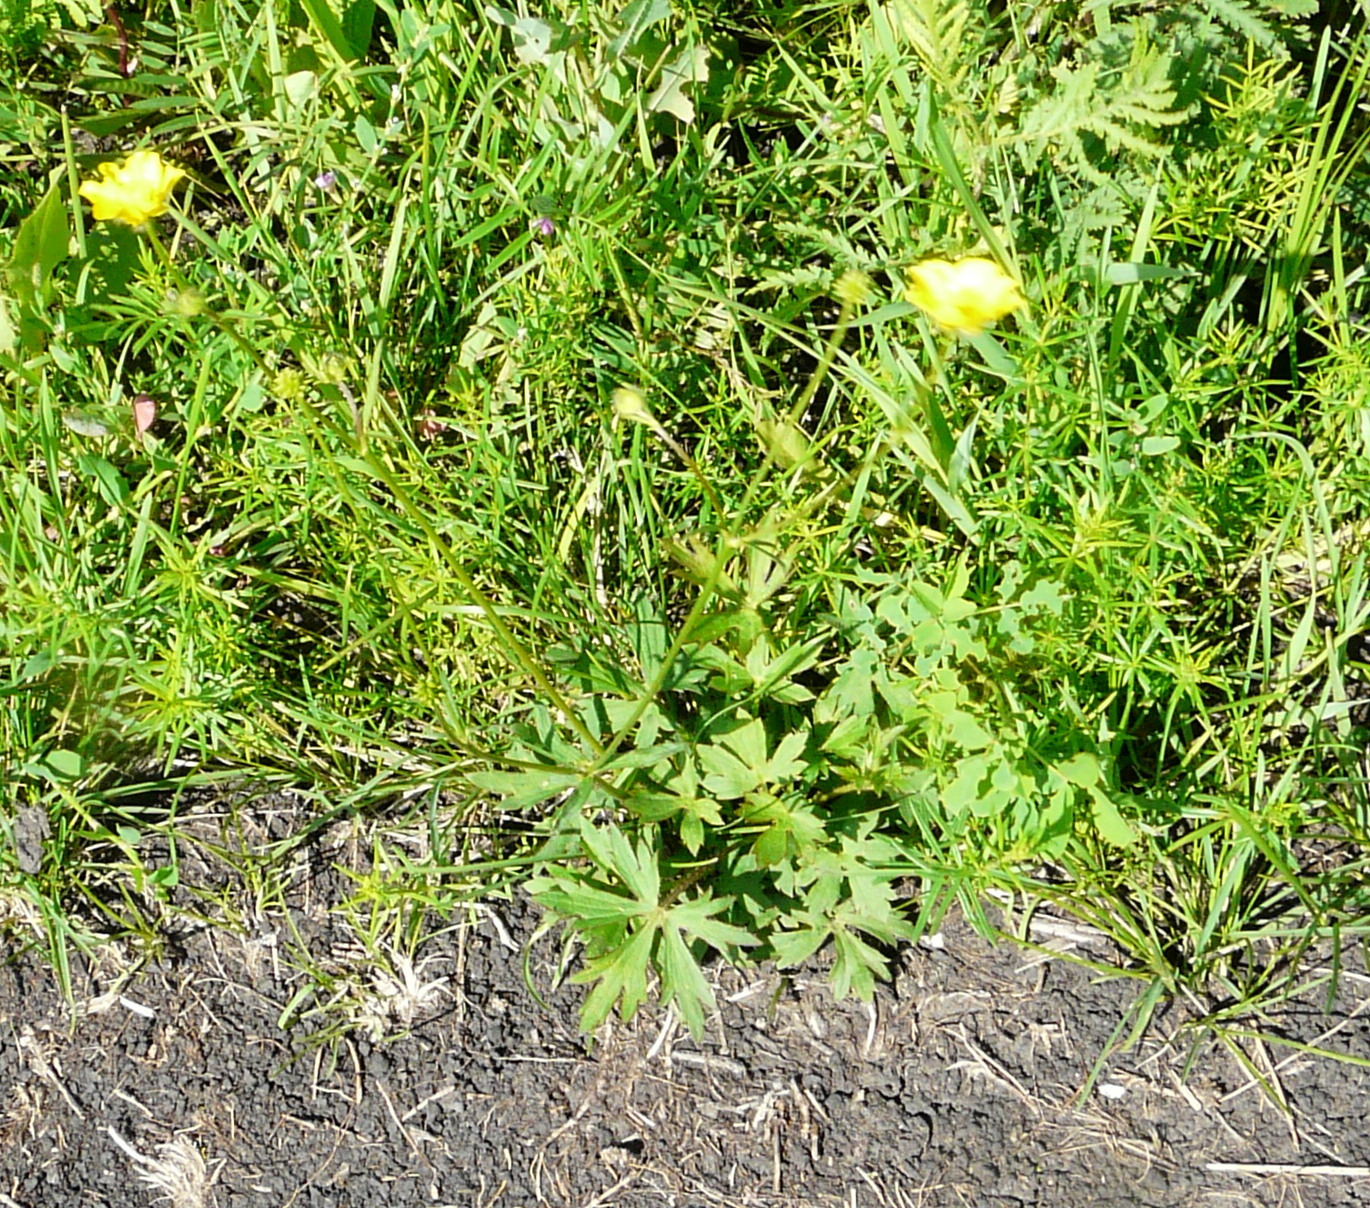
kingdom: Plantae
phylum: Tracheophyta
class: Magnoliopsida
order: Ranunculales
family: Ranunculaceae
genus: Ranunculus
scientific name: Ranunculus polyanthemos
